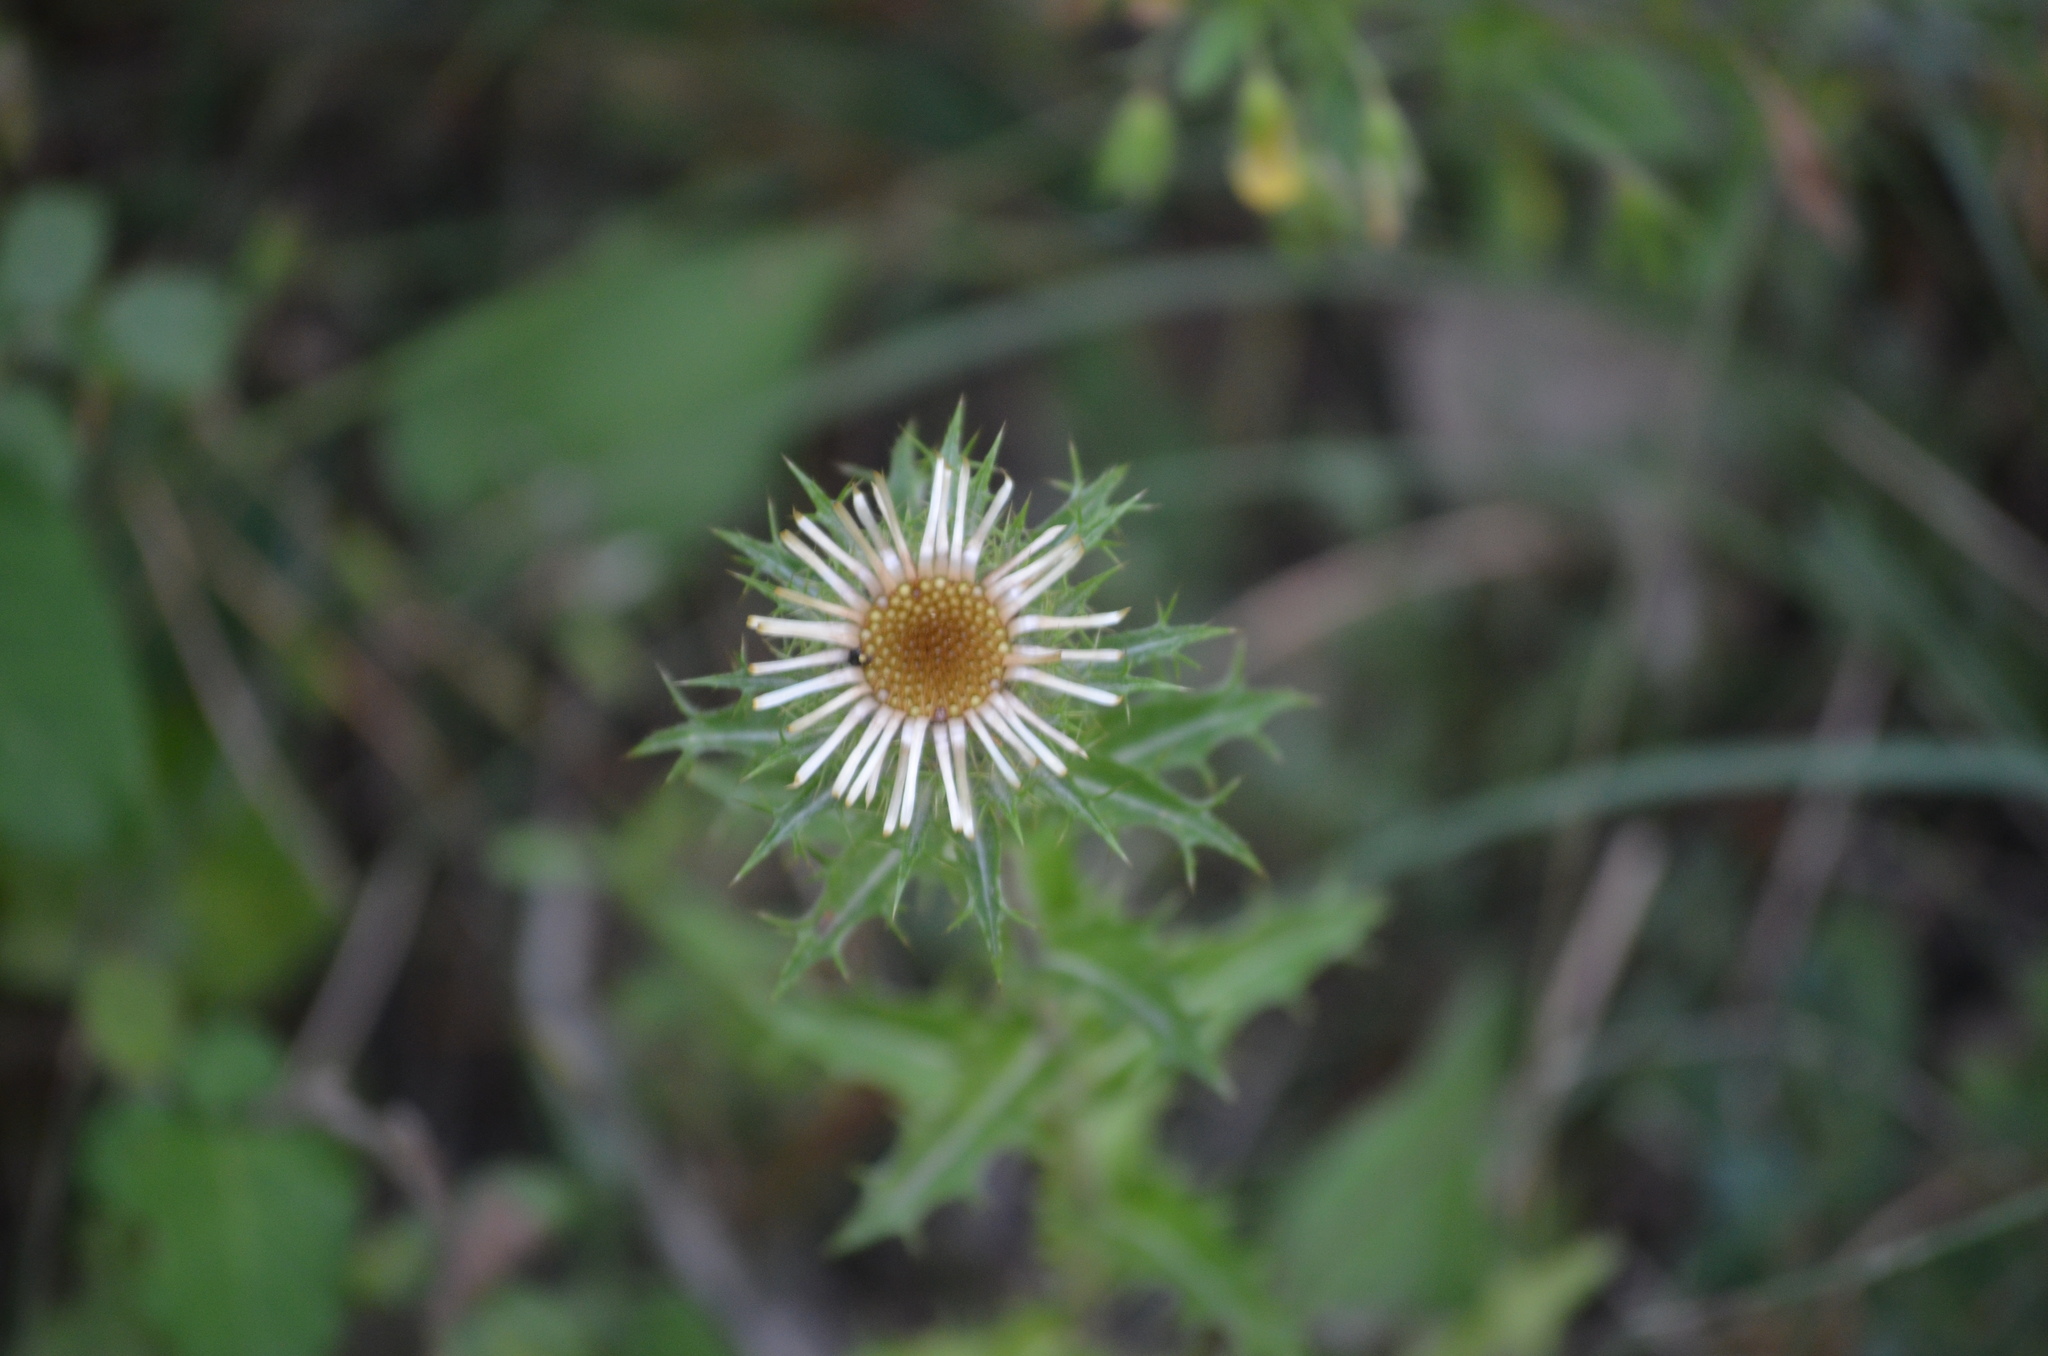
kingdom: Plantae
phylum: Tracheophyta
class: Magnoliopsida
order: Asterales
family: Asteraceae
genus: Carlina
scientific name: Carlina vulgaris
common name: Carline thistle
